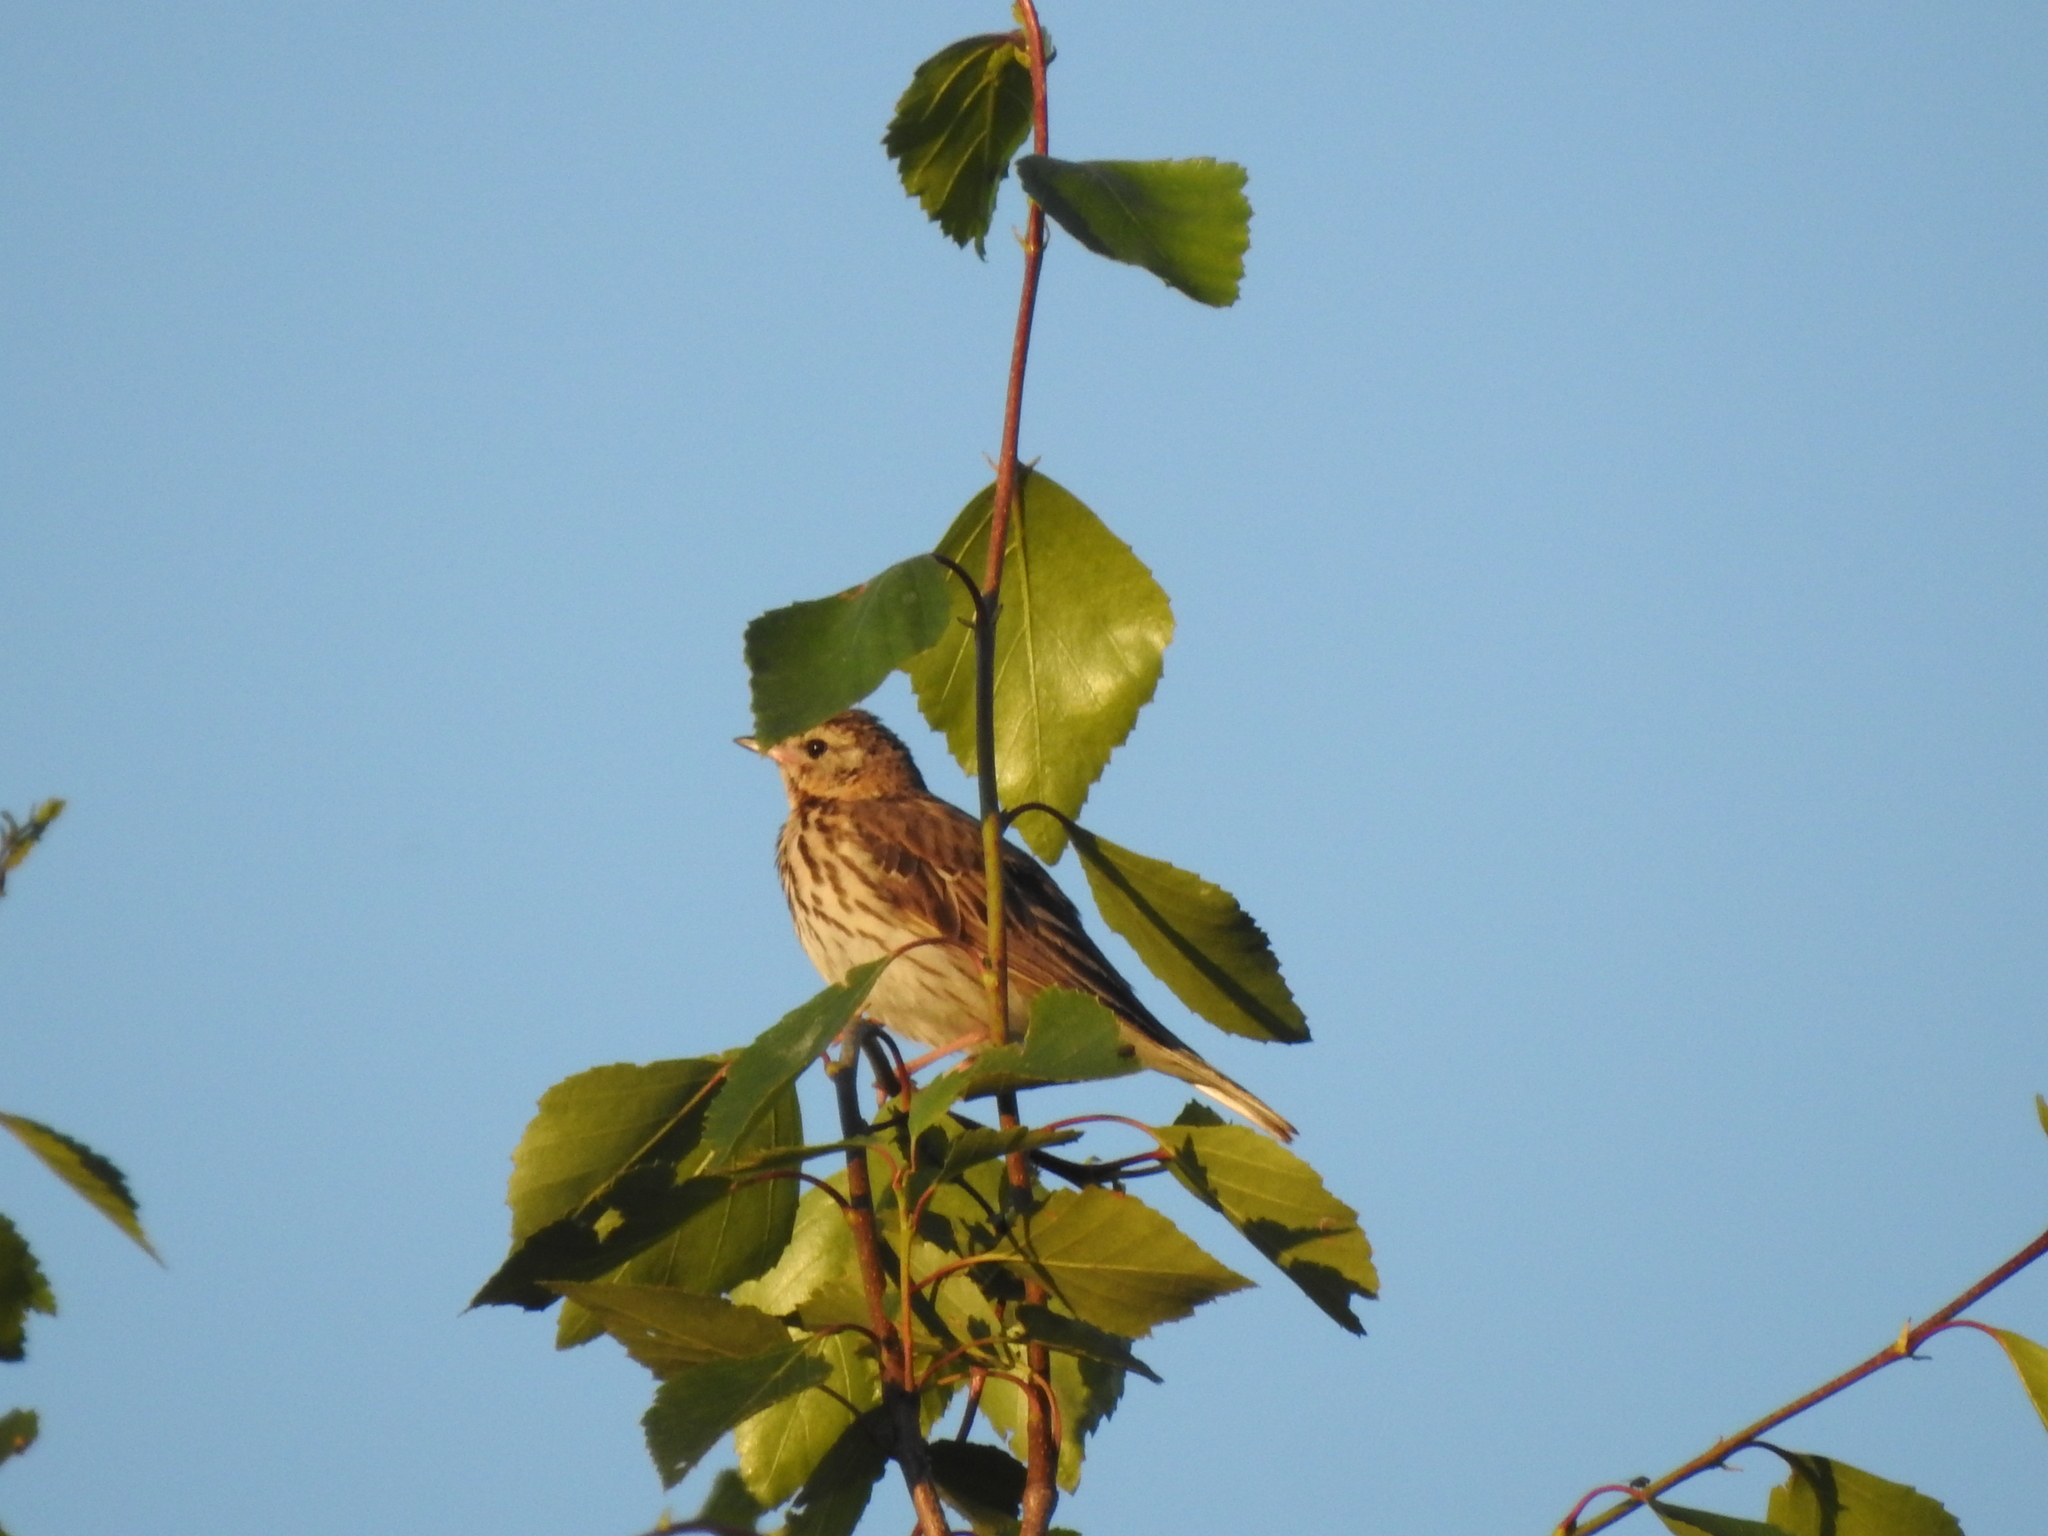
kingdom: Animalia
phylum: Chordata
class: Aves
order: Passeriformes
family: Motacillidae
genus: Anthus
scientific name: Anthus trivialis
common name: Tree pipit
